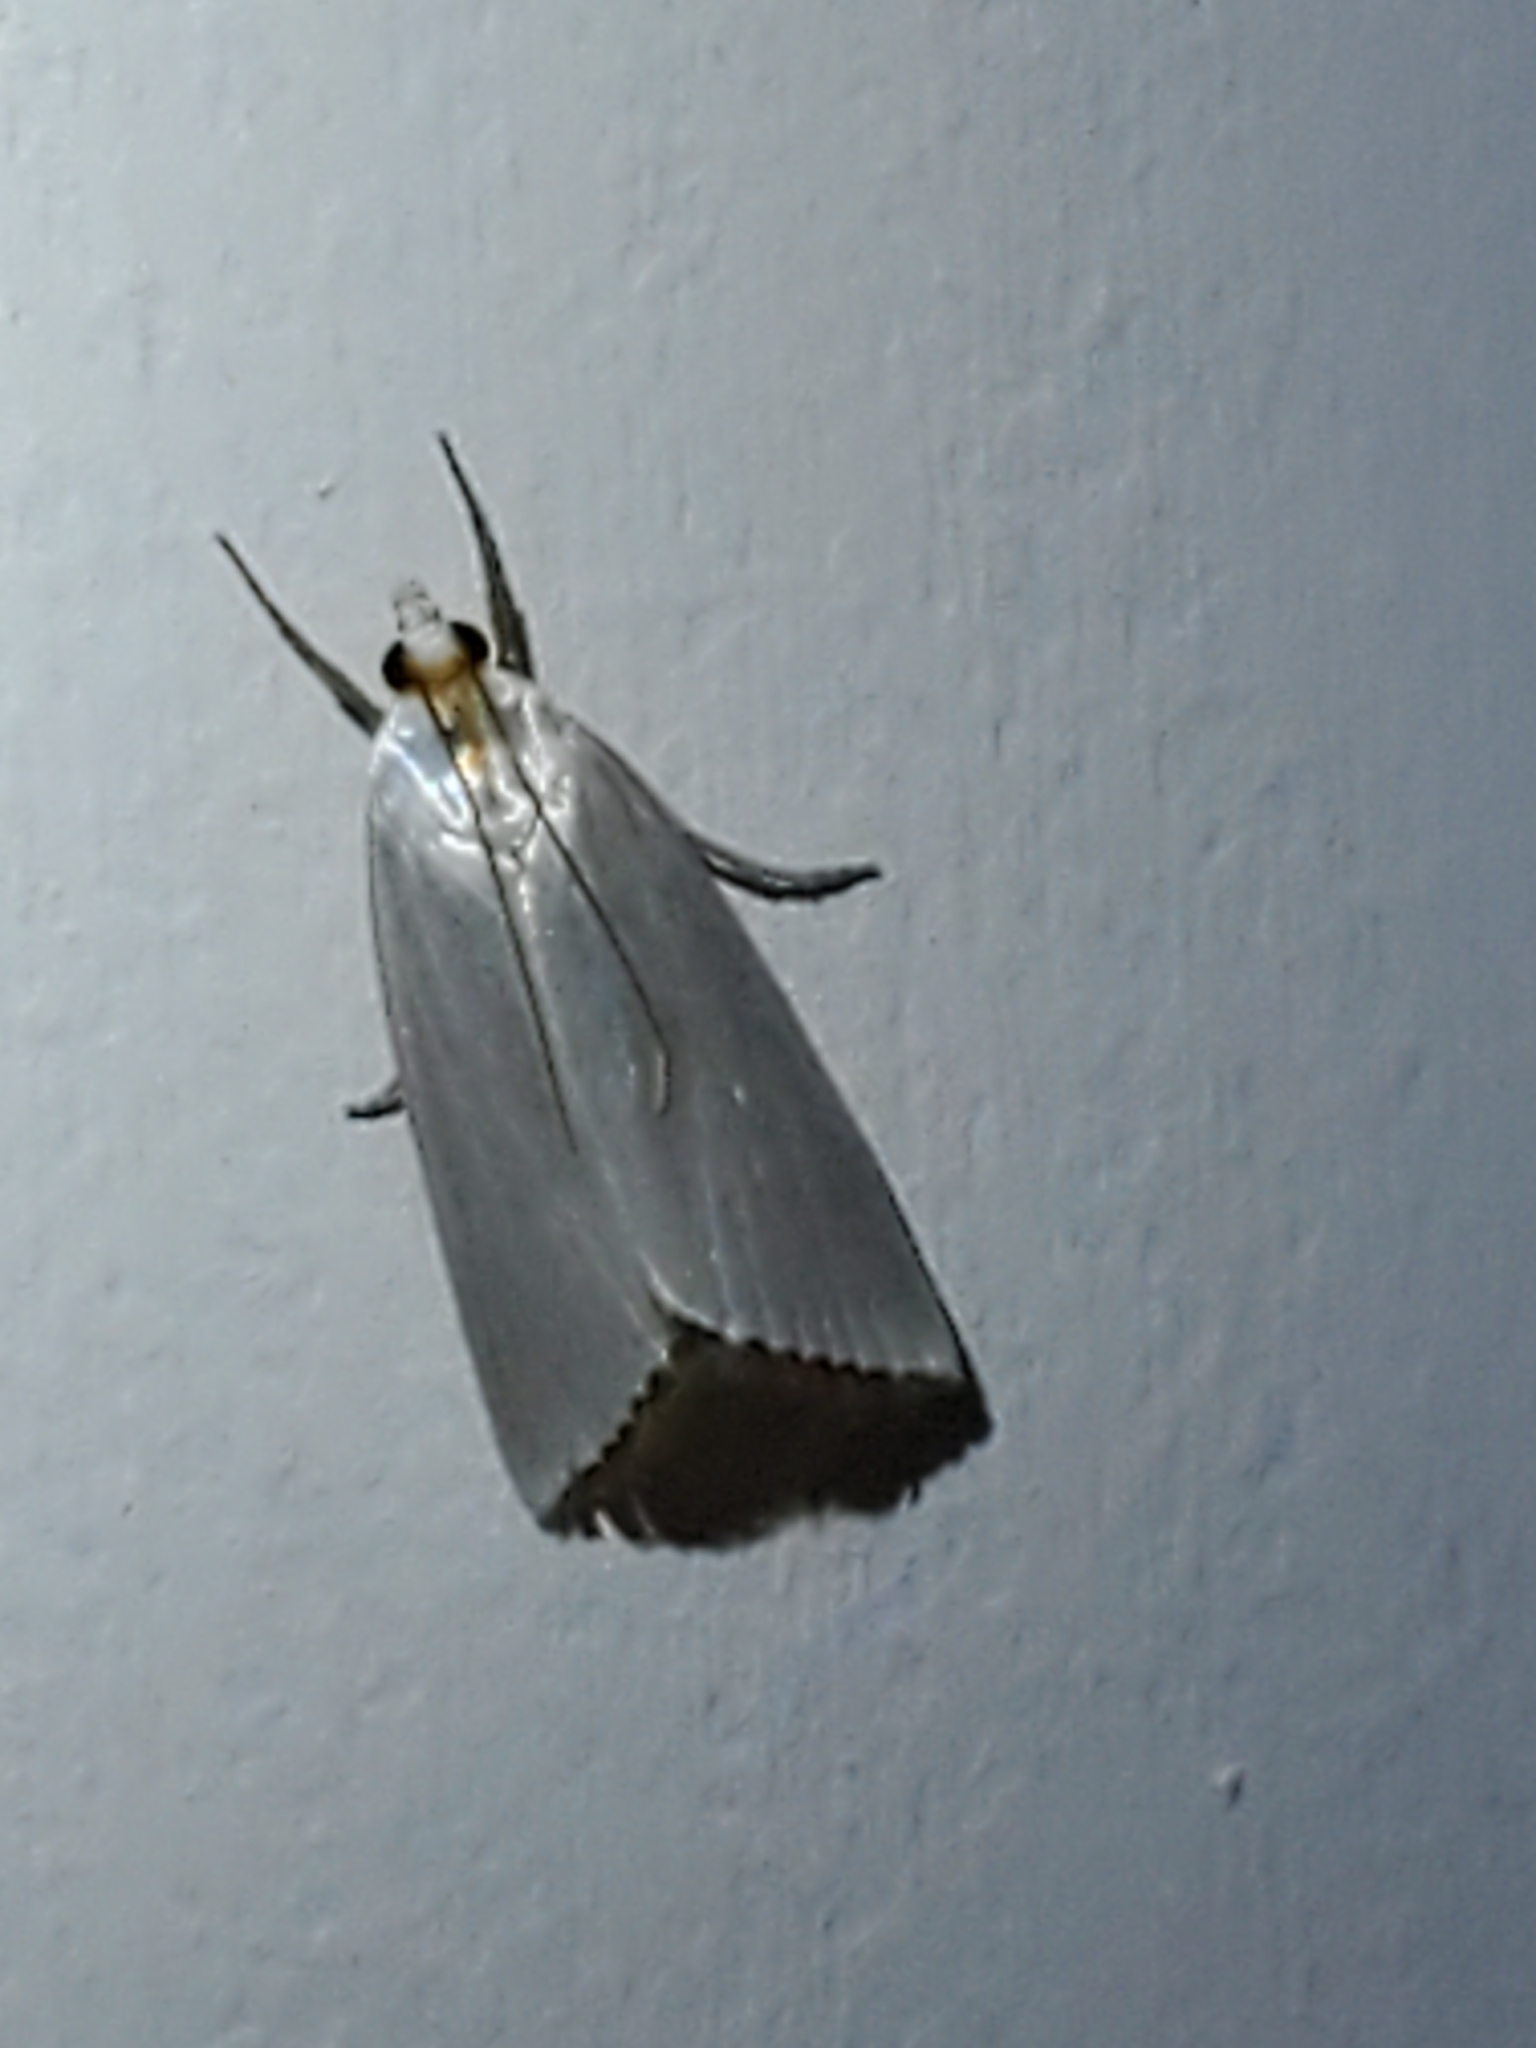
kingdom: Animalia
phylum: Arthropoda
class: Insecta
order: Lepidoptera
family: Crambidae
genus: Argyria
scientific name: Argyria nivalis
